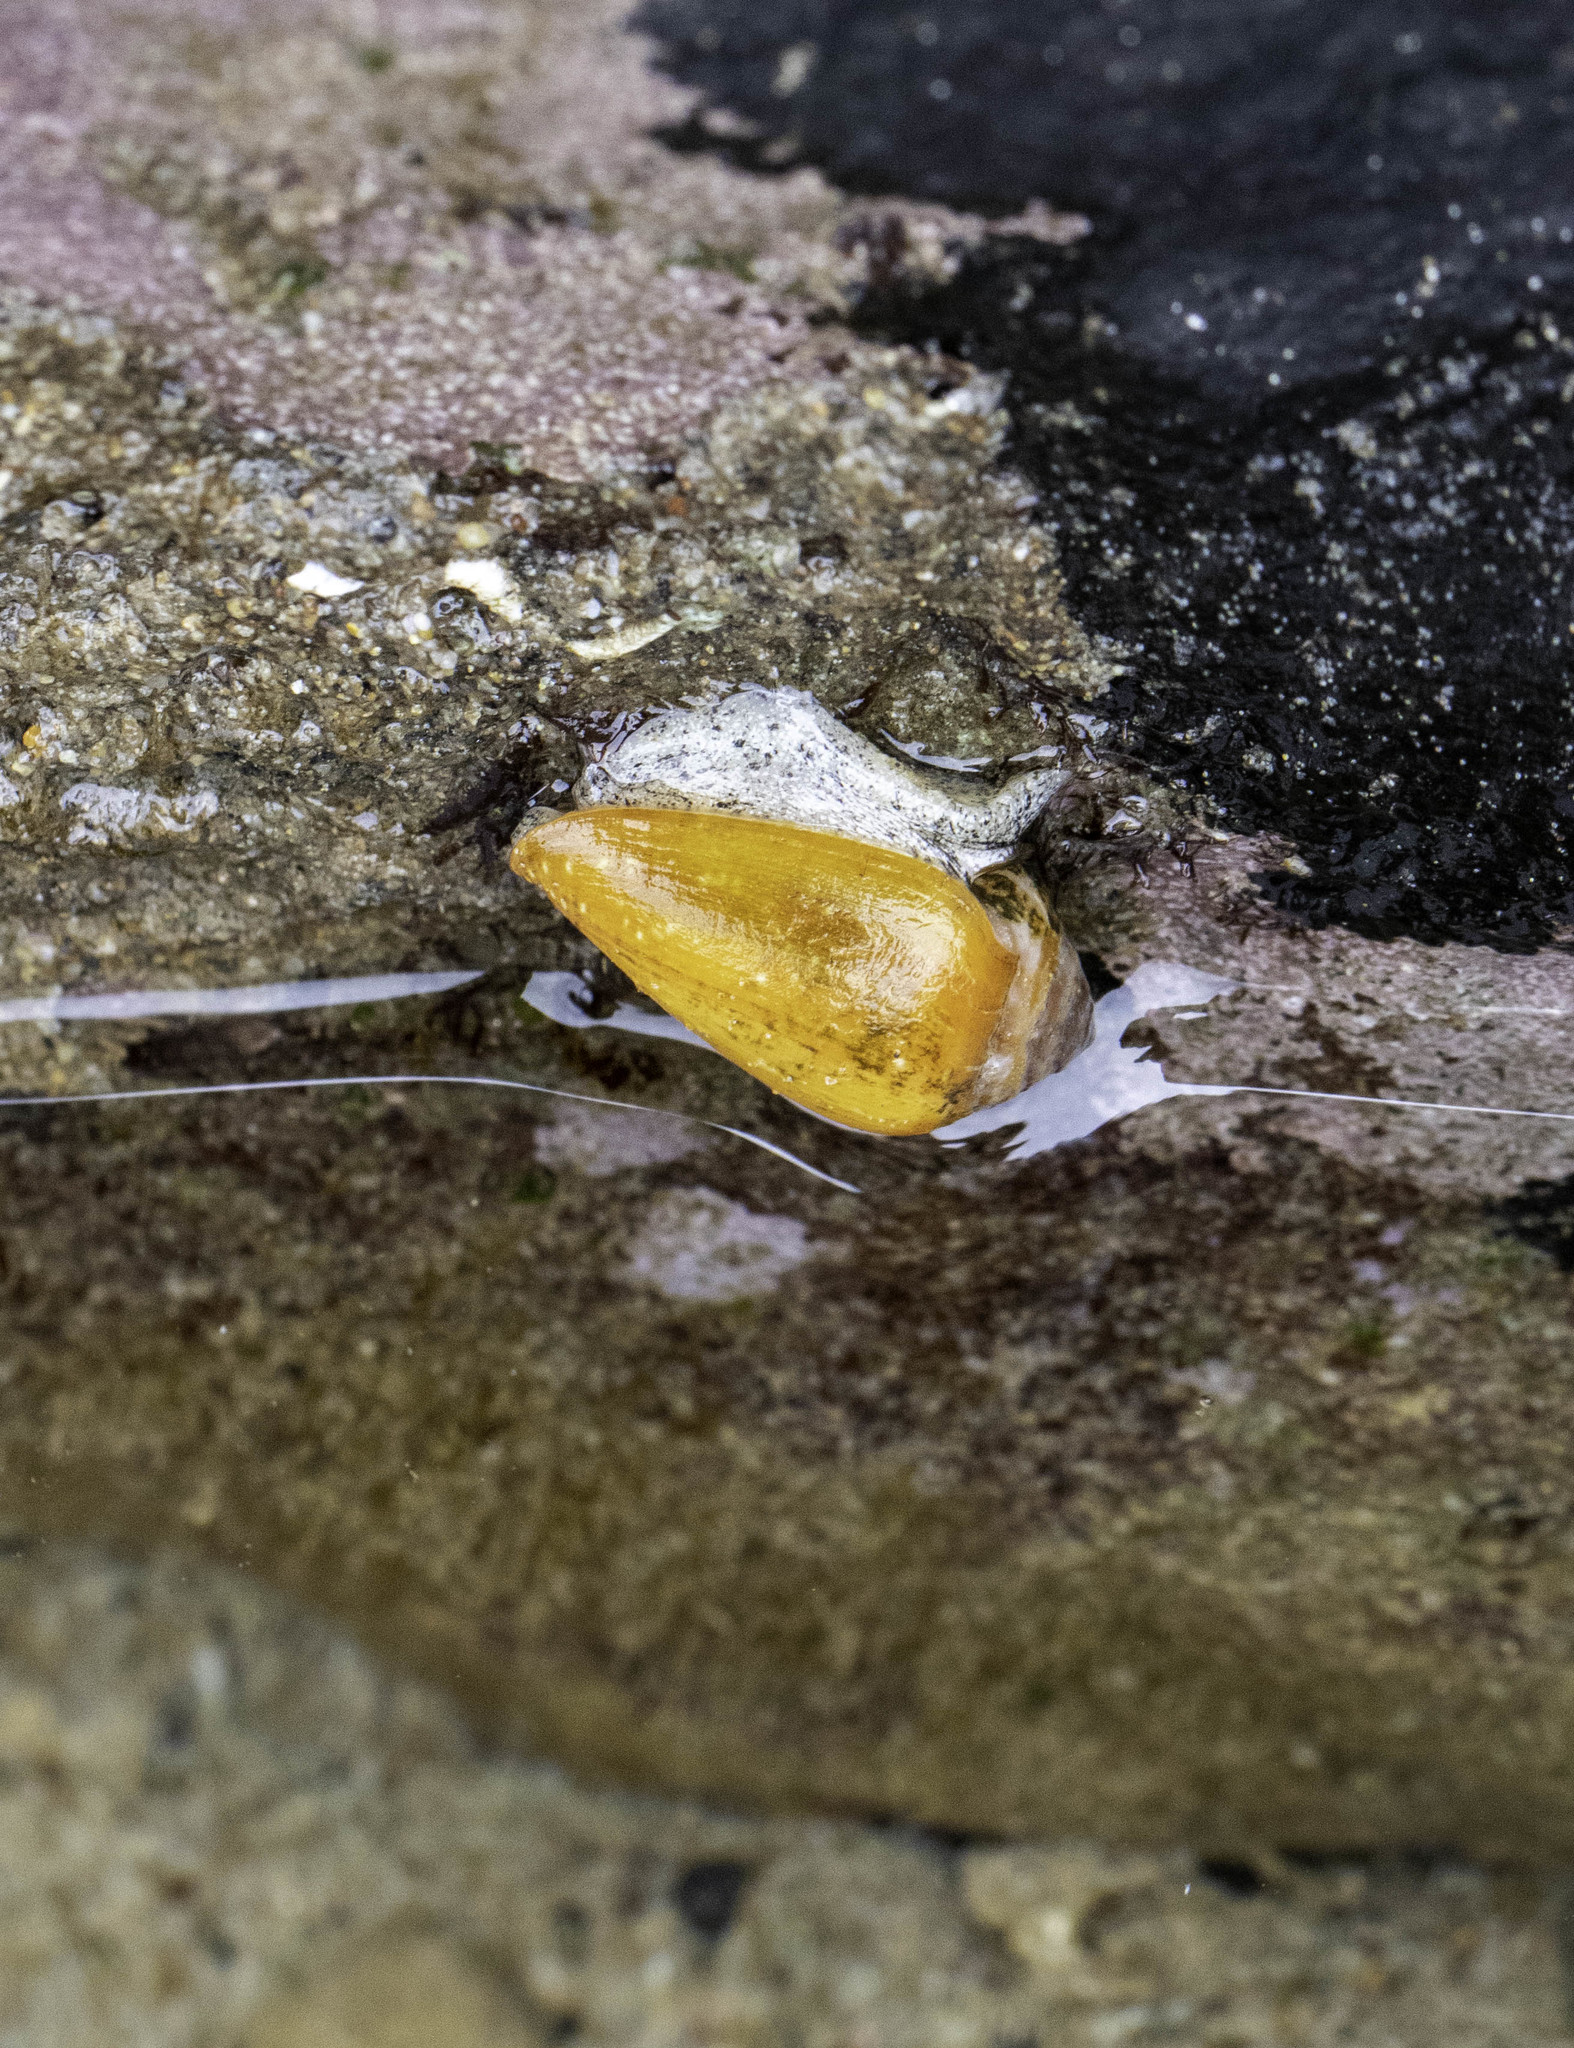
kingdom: Animalia
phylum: Mollusca
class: Gastropoda
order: Neogastropoda
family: Conidae
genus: Californiconus
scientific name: Californiconus californicus
